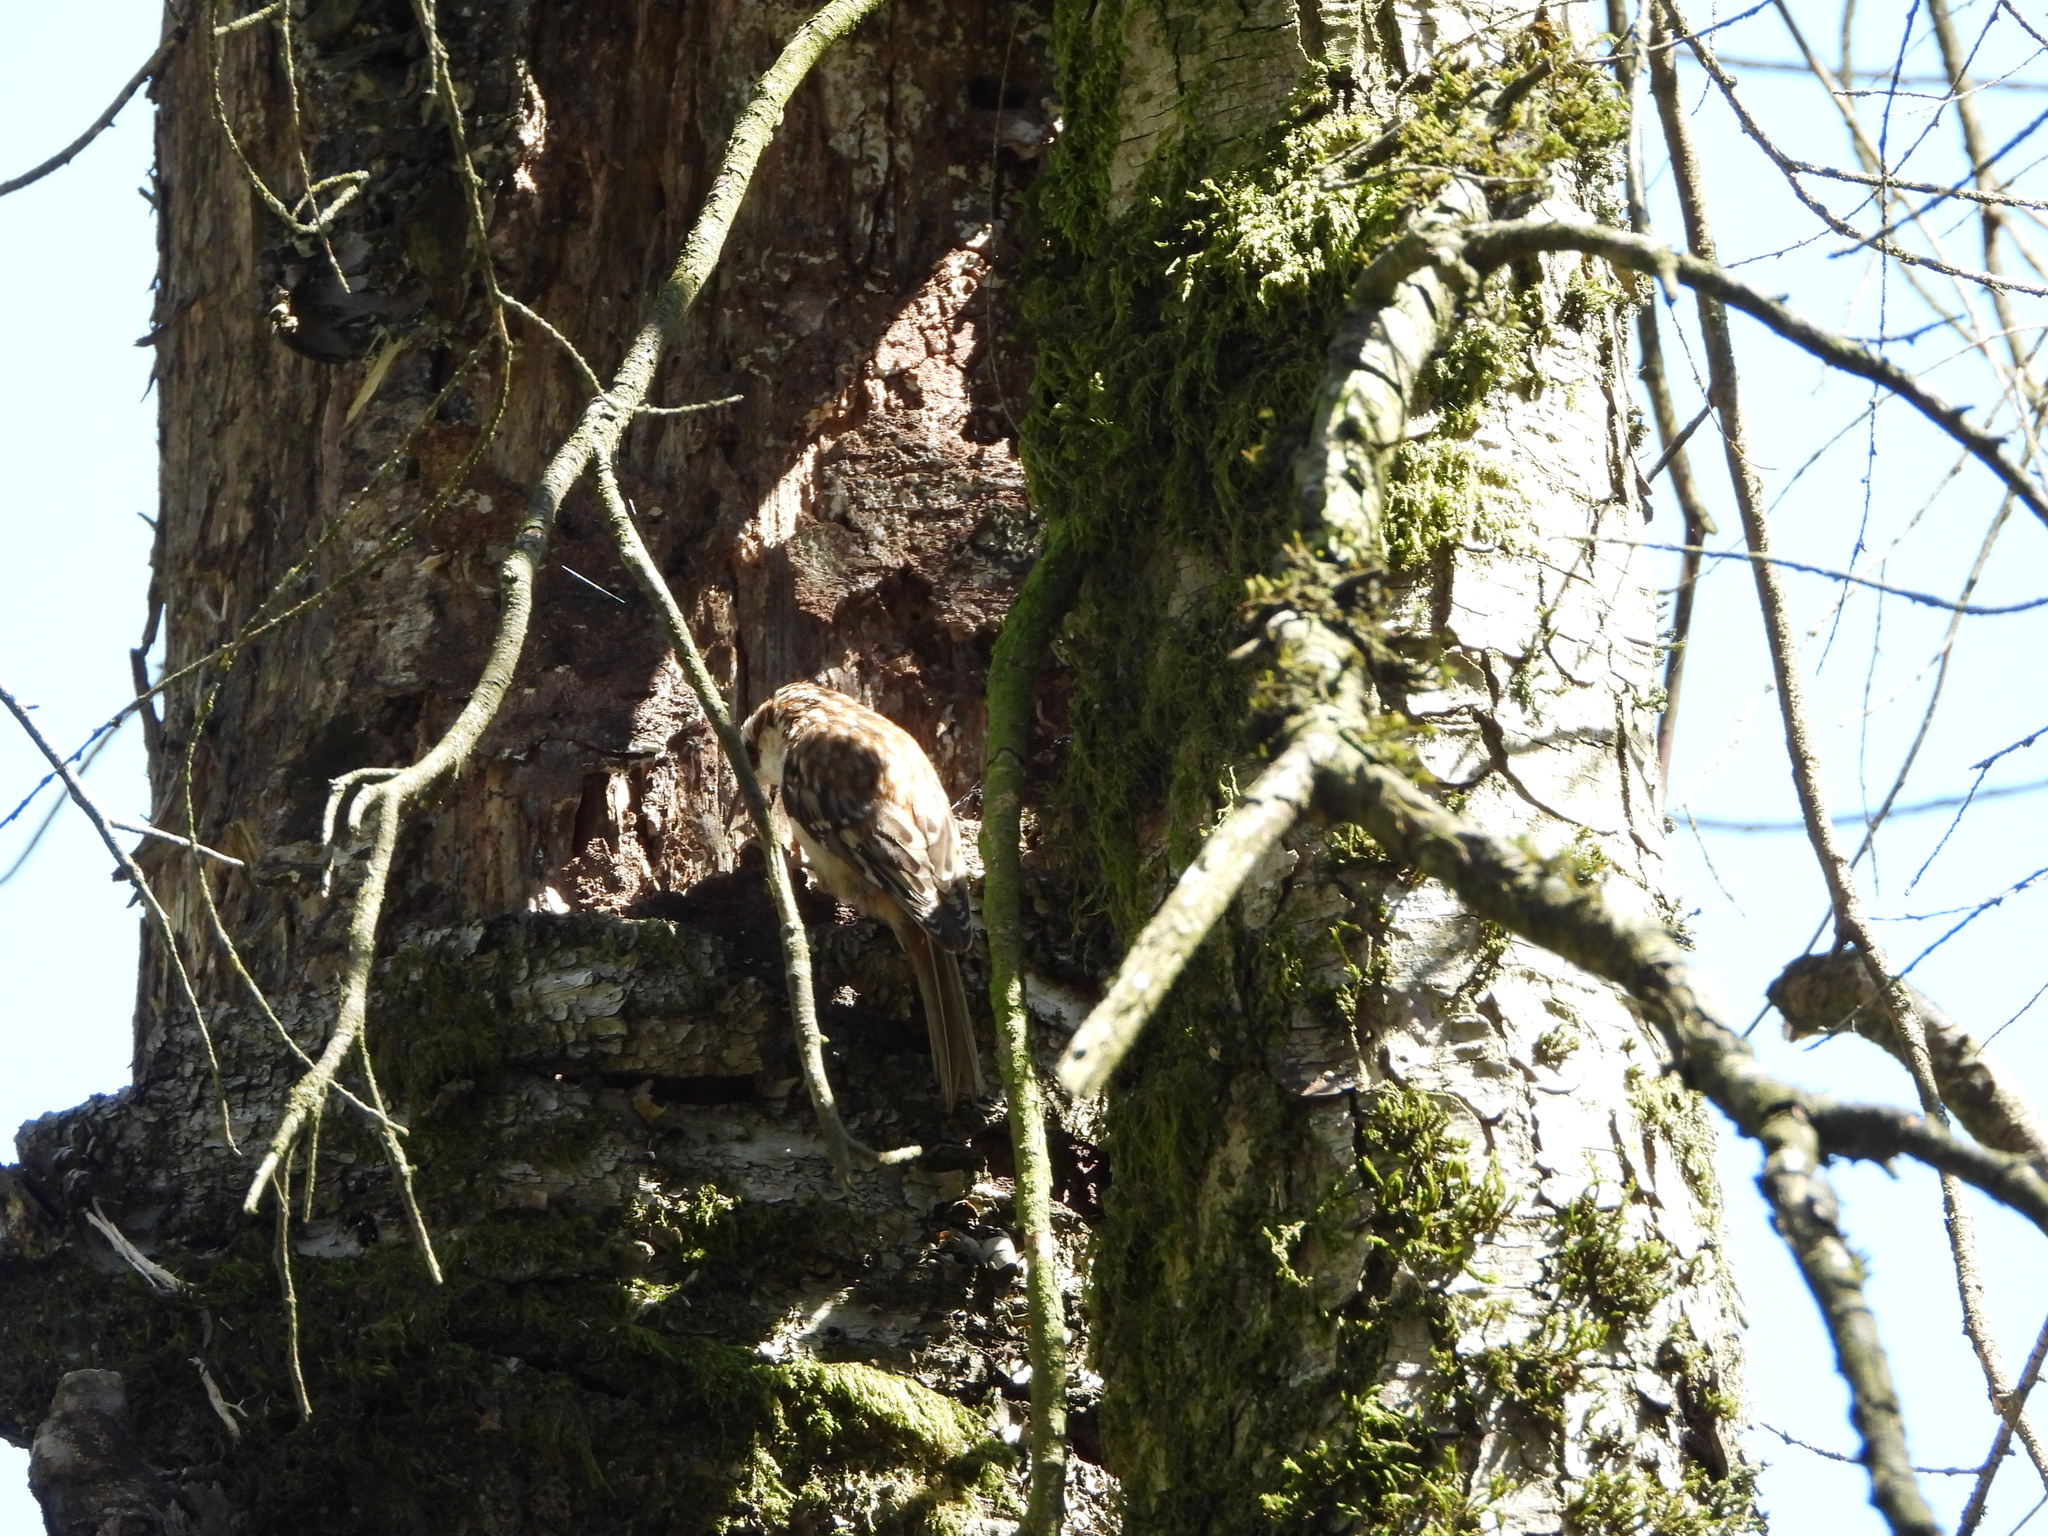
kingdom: Animalia
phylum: Chordata
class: Aves
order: Passeriformes
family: Certhiidae
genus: Certhia
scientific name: Certhia americana
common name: Brown creeper
